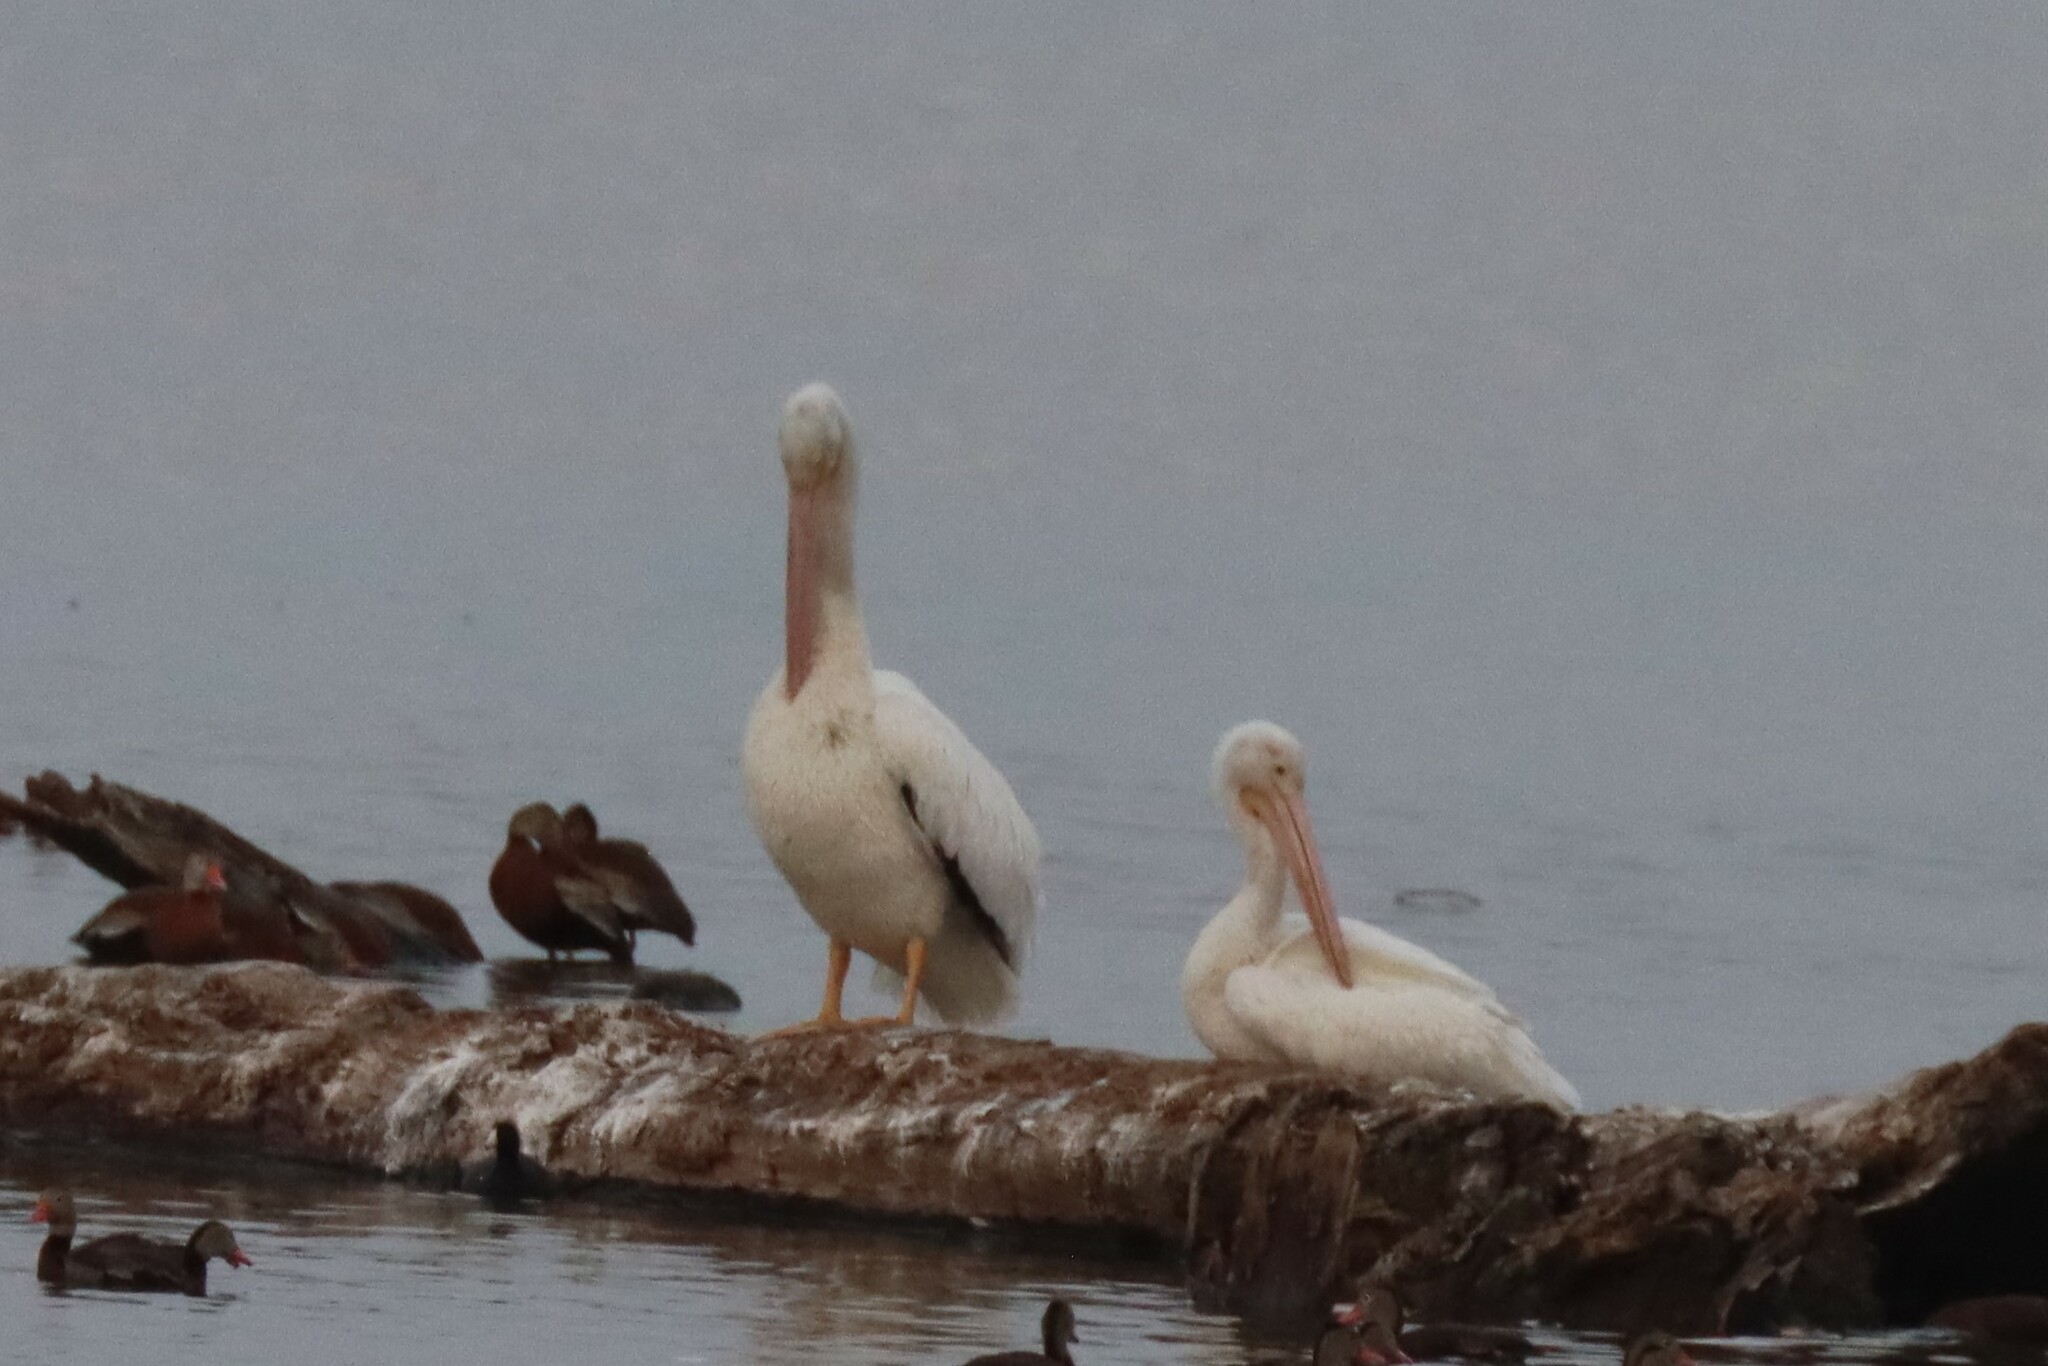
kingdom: Animalia
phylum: Chordata
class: Aves
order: Pelecaniformes
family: Pelecanidae
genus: Pelecanus
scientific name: Pelecanus erythrorhynchos
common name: American white pelican
